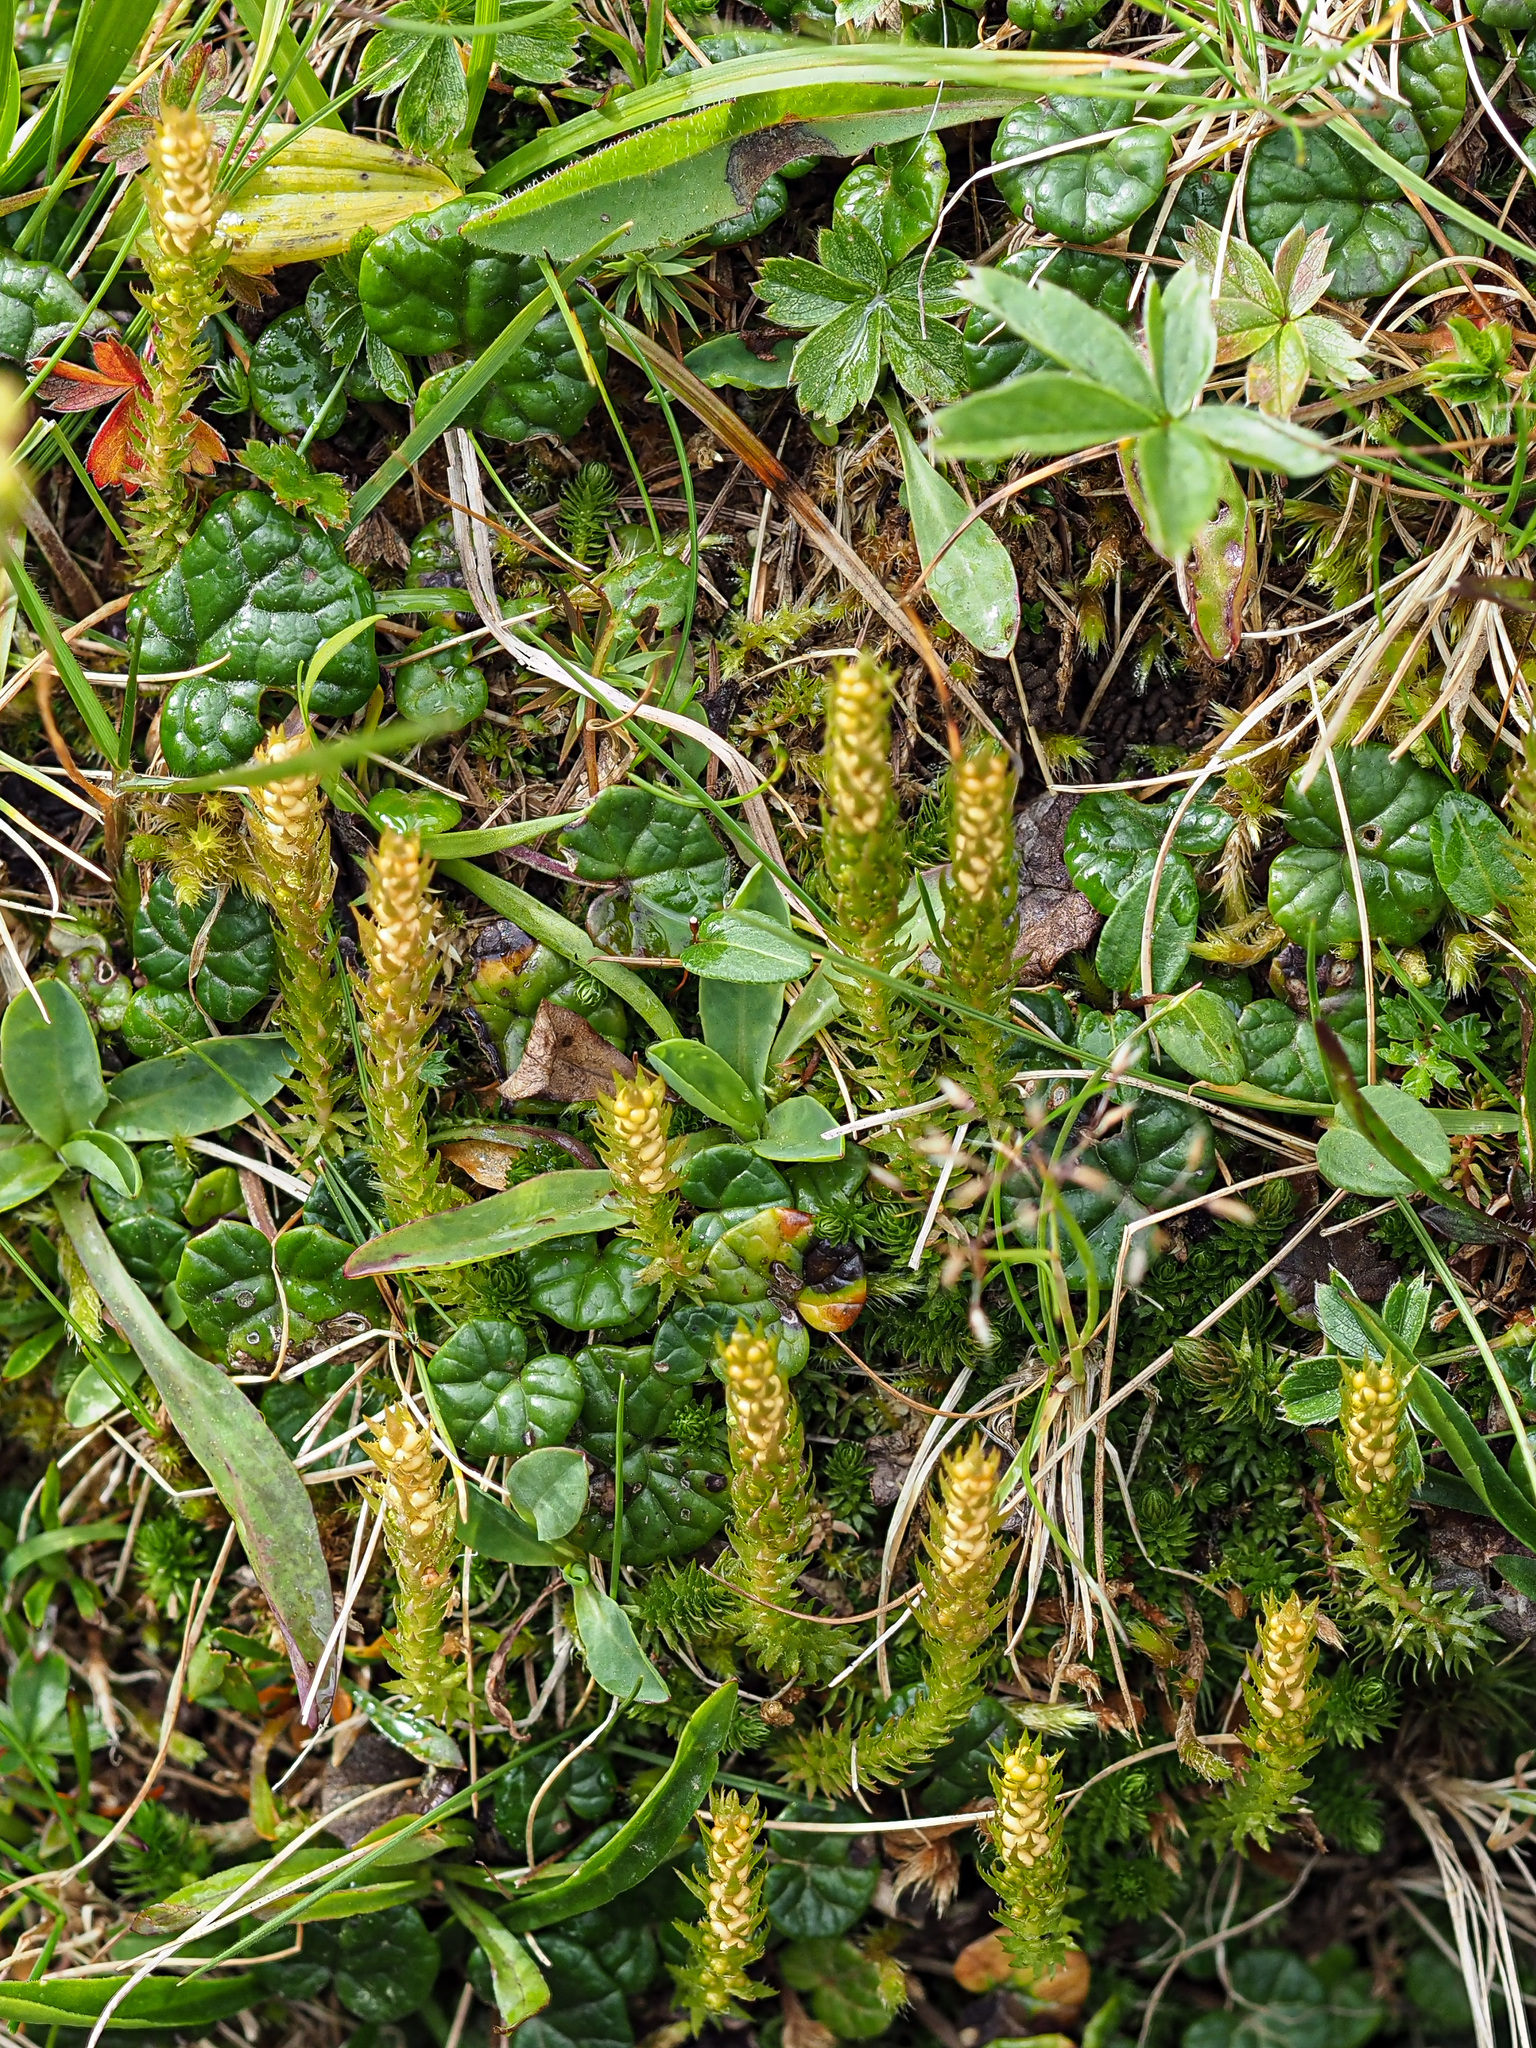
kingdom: Plantae
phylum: Tracheophyta
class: Lycopodiopsida
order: Selaginellales
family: Selaginellaceae
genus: Selaginella
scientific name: Selaginella selaginoides
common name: Prickly mountain-moss
